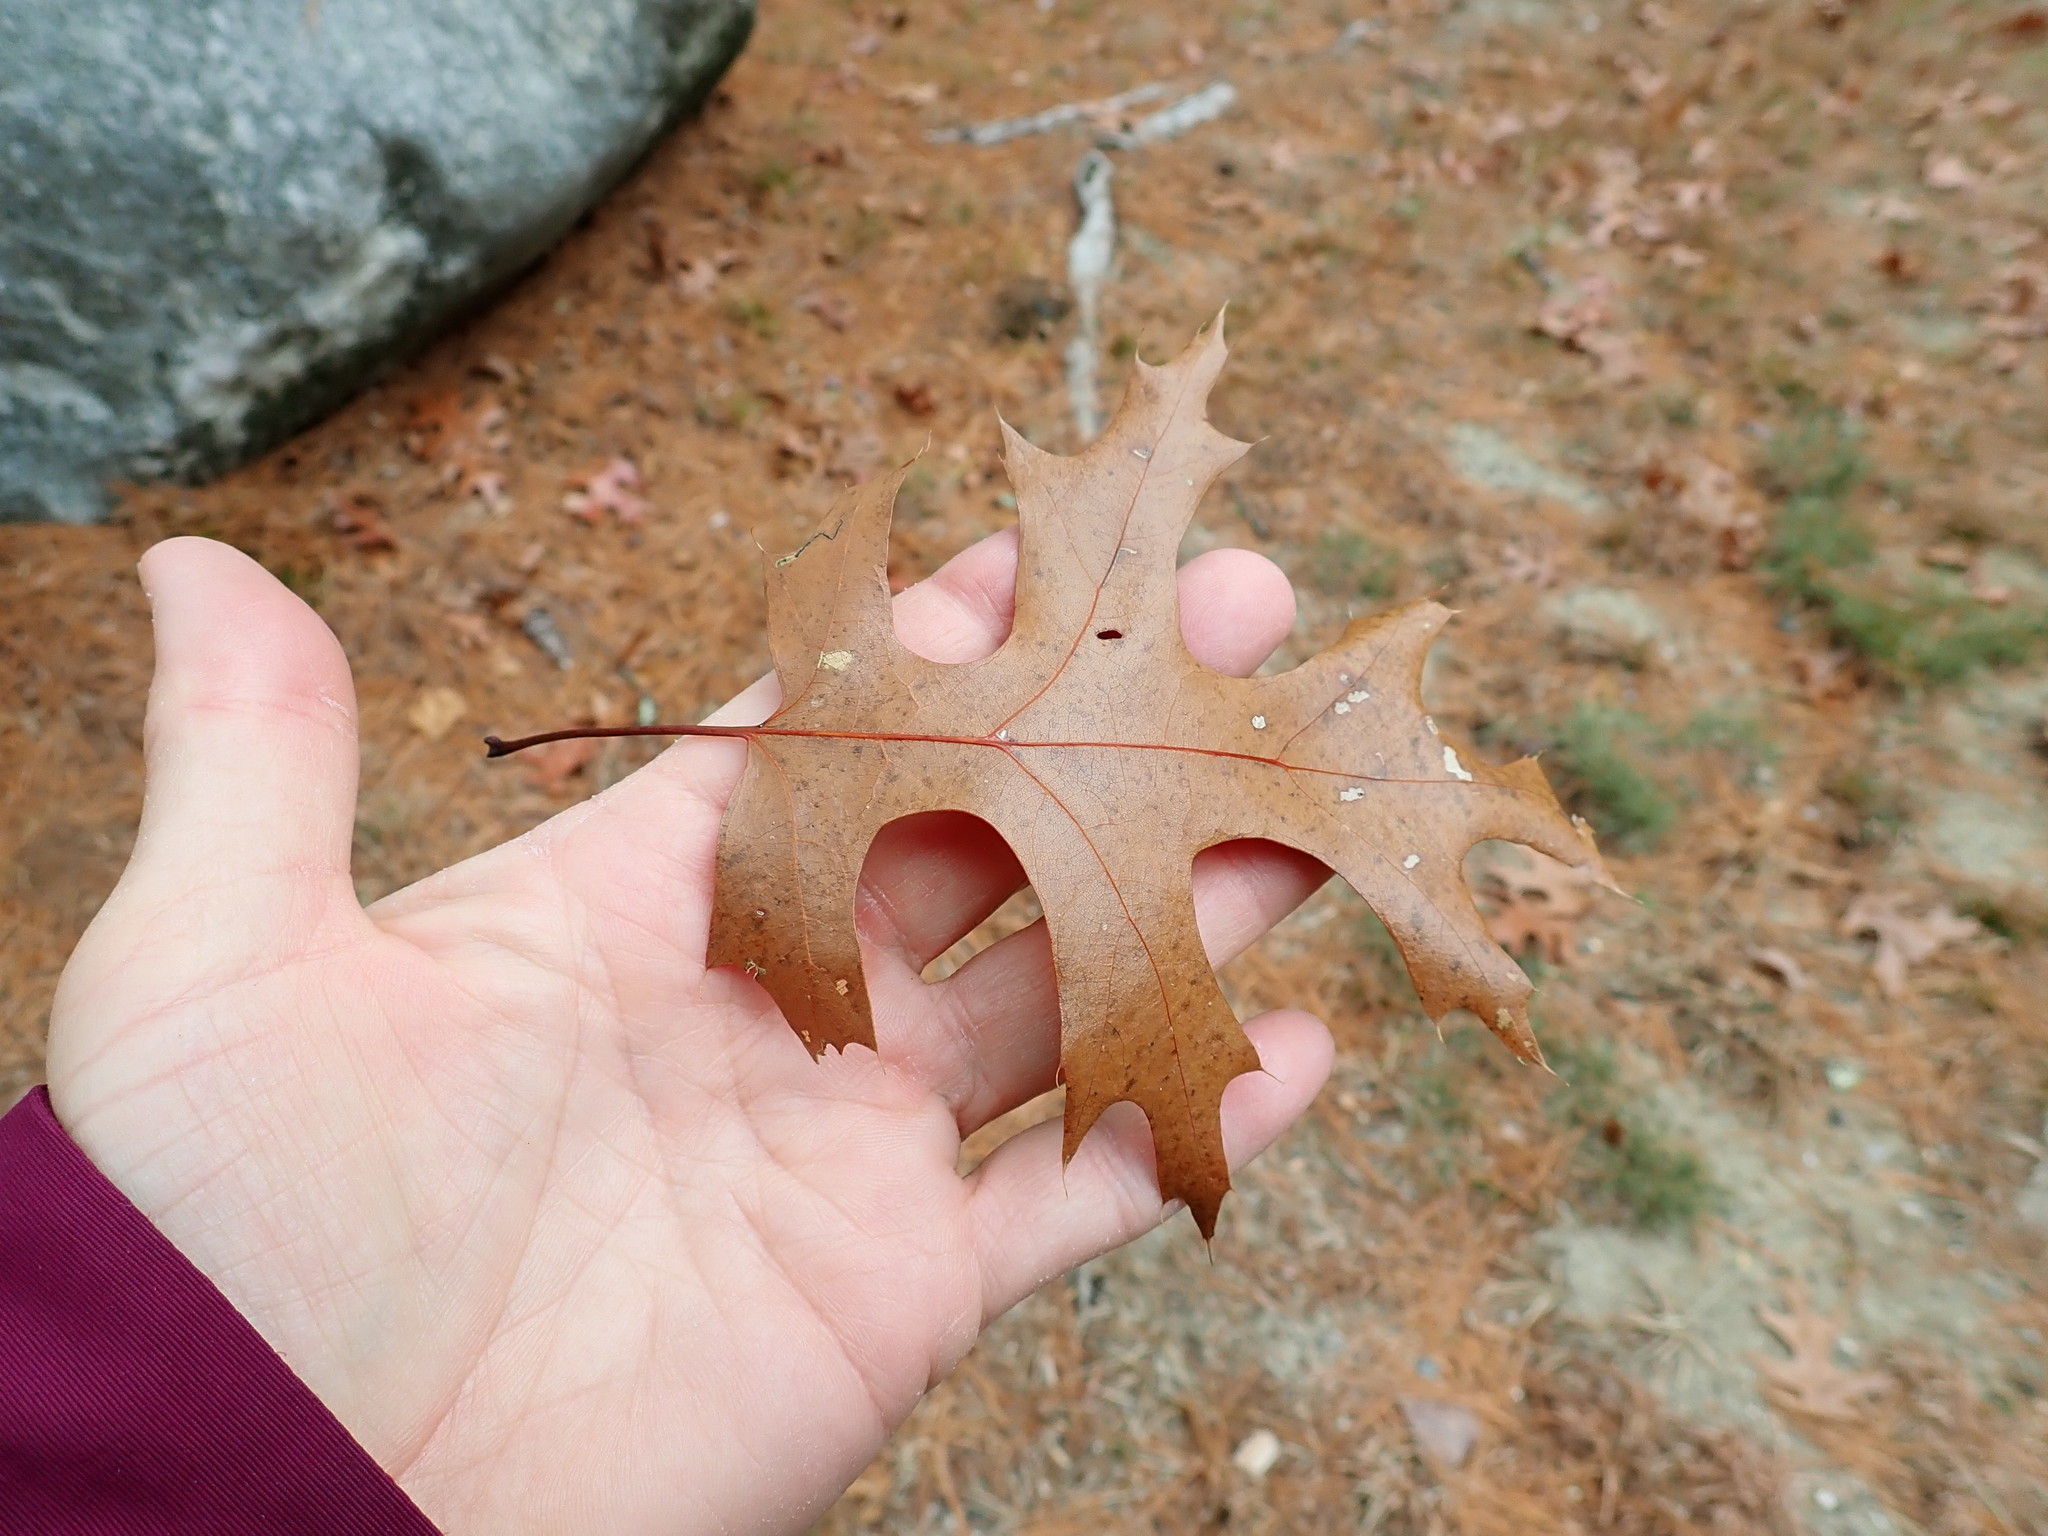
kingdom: Plantae
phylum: Tracheophyta
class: Magnoliopsida
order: Fagales
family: Fagaceae
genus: Quercus
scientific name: Quercus coccinea
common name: Scarlet oak
